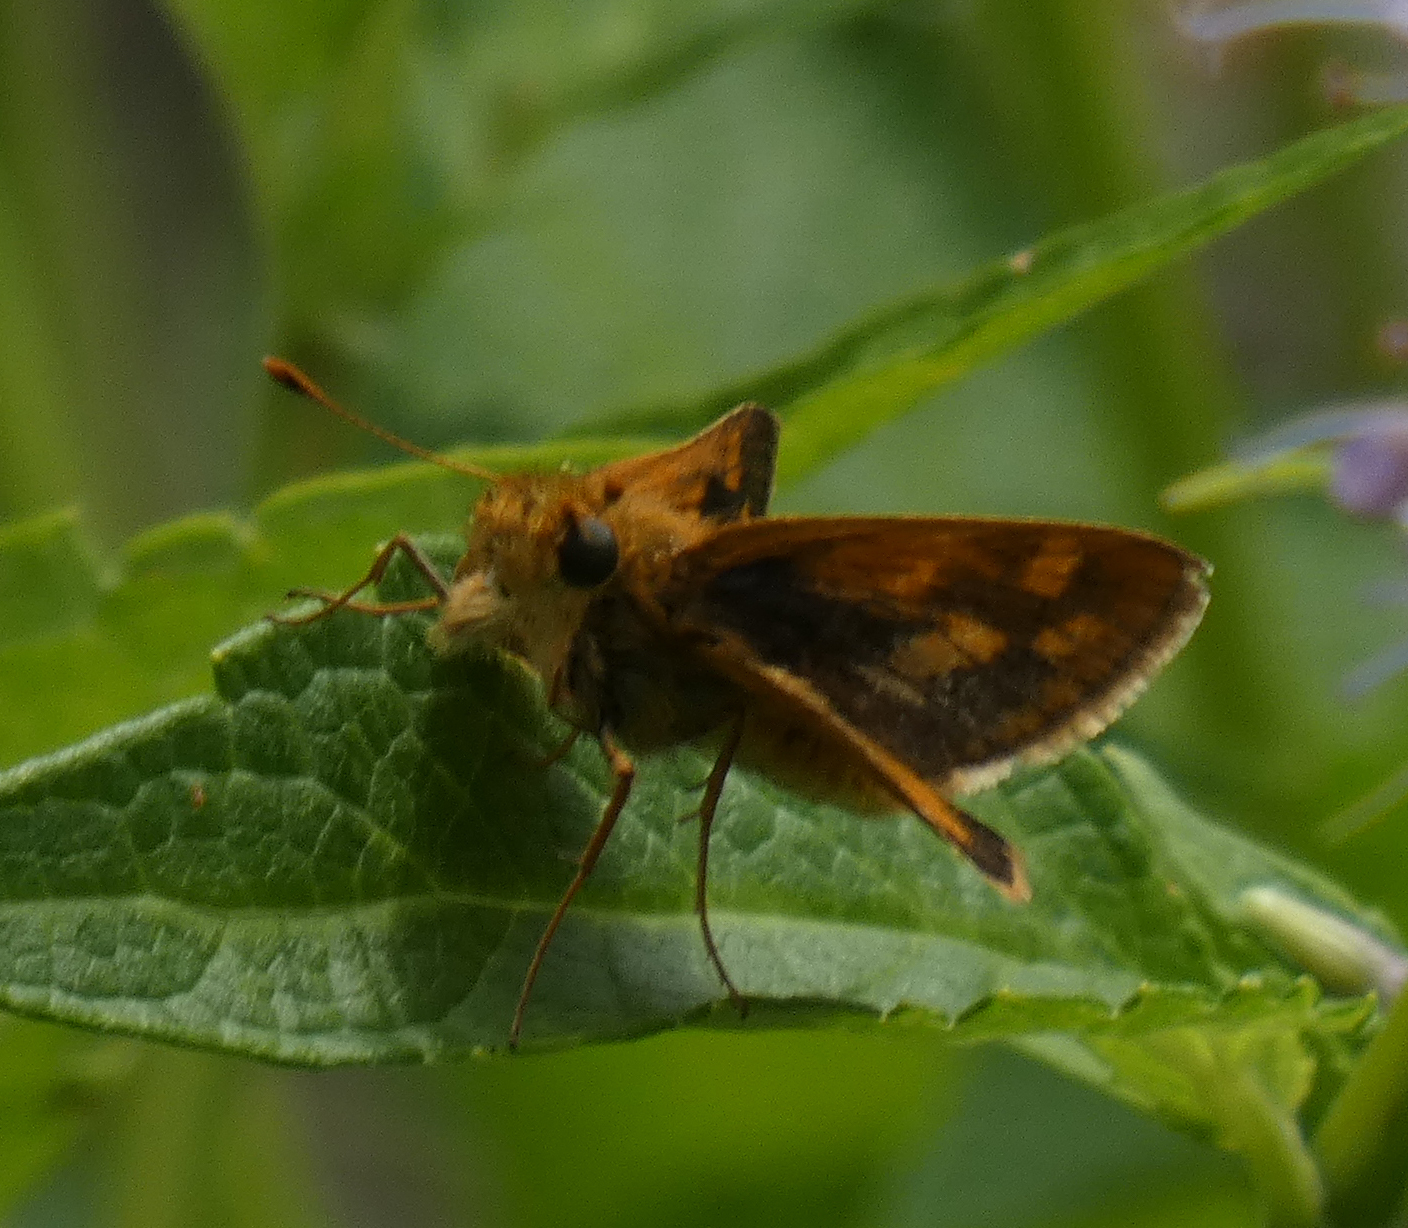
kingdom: Animalia
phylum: Arthropoda
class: Insecta
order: Lepidoptera
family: Hesperiidae
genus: Polites
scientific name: Polites coras
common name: Peck's skipper
